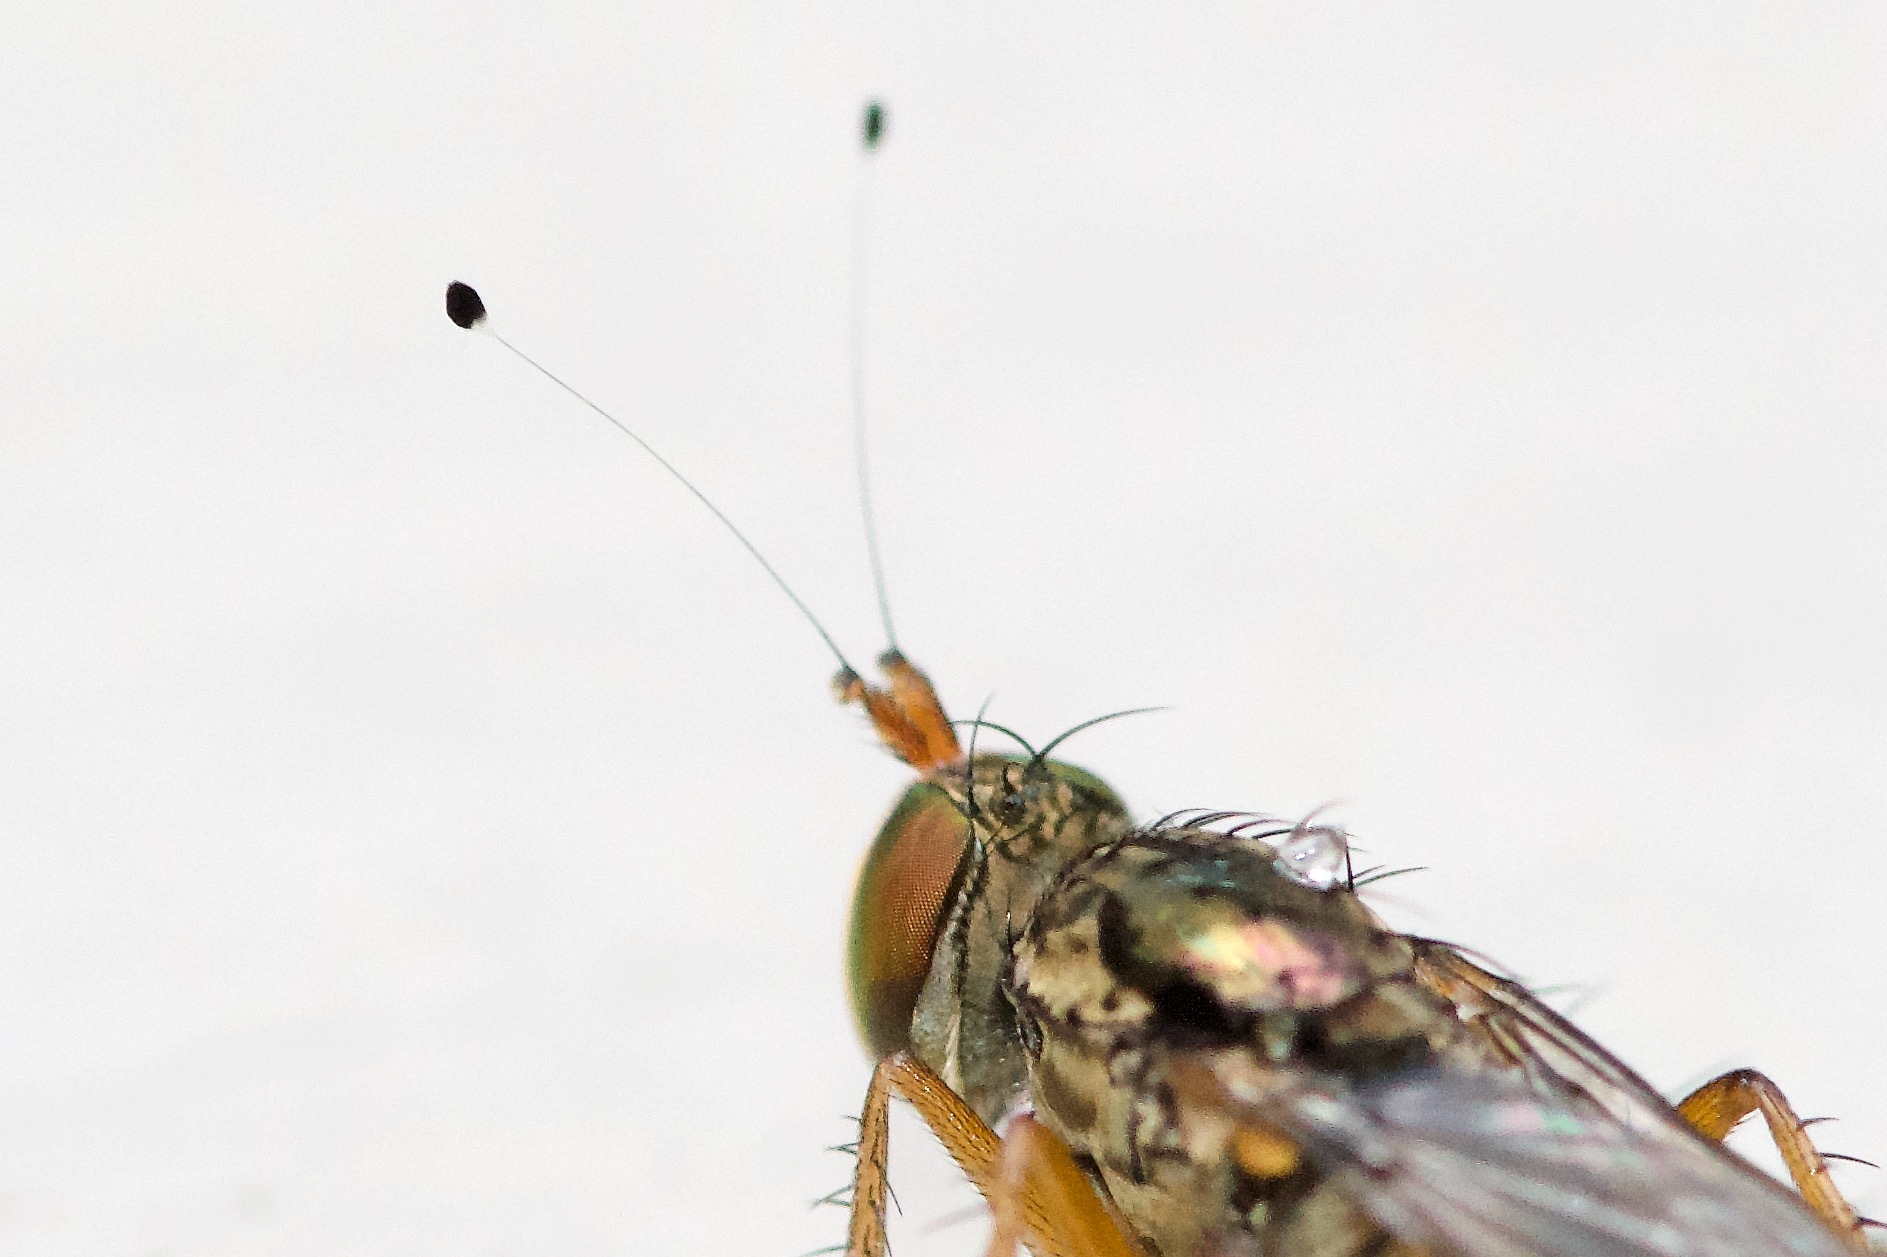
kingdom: Animalia
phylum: Arthropoda
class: Insecta
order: Diptera
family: Dolichopodidae
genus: Tachytrechus
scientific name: Tachytrechus moechus
